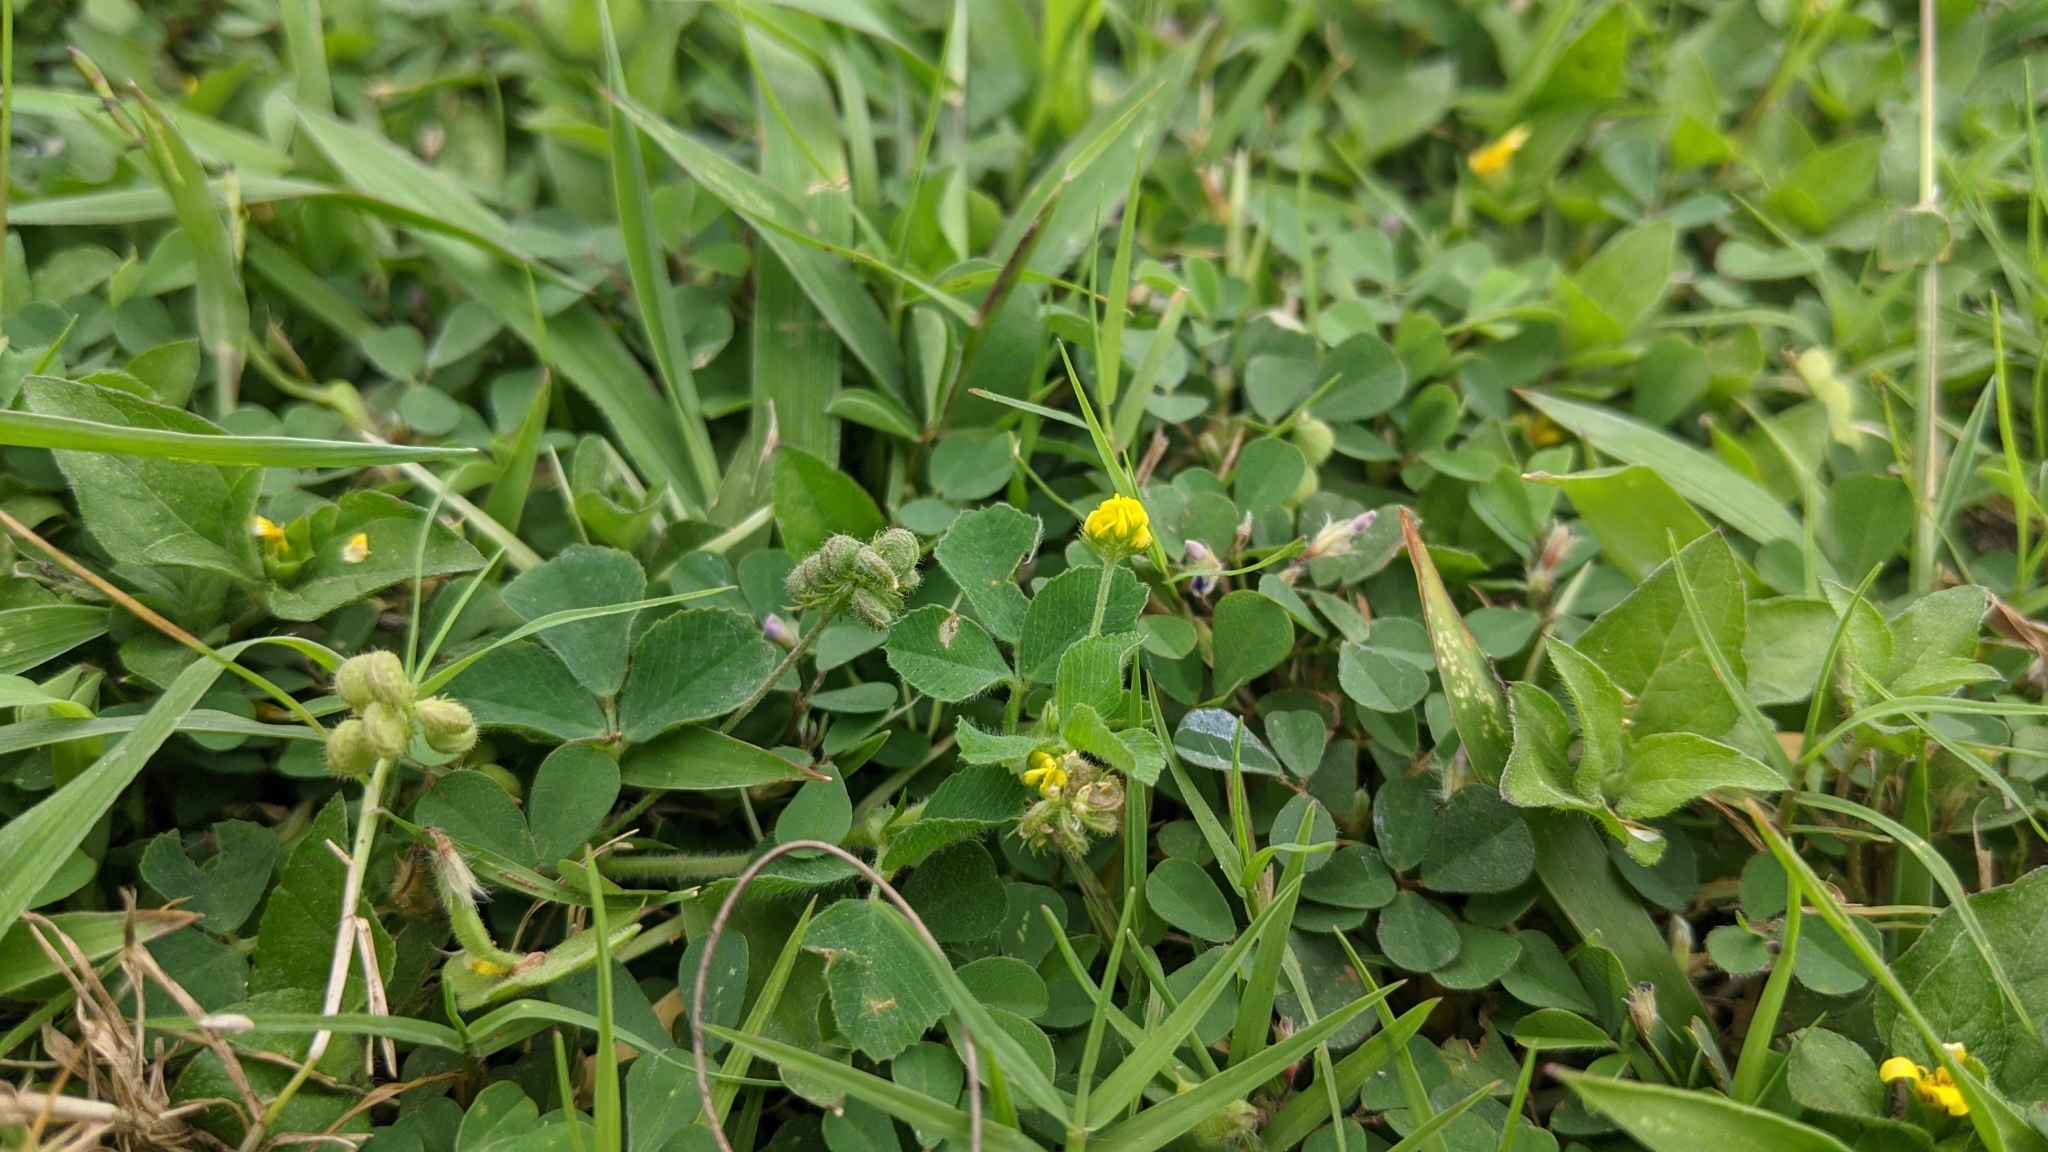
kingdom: Plantae
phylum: Tracheophyta
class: Magnoliopsida
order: Fabales
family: Fabaceae
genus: Medicago
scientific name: Medicago lupulina
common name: Black medick
